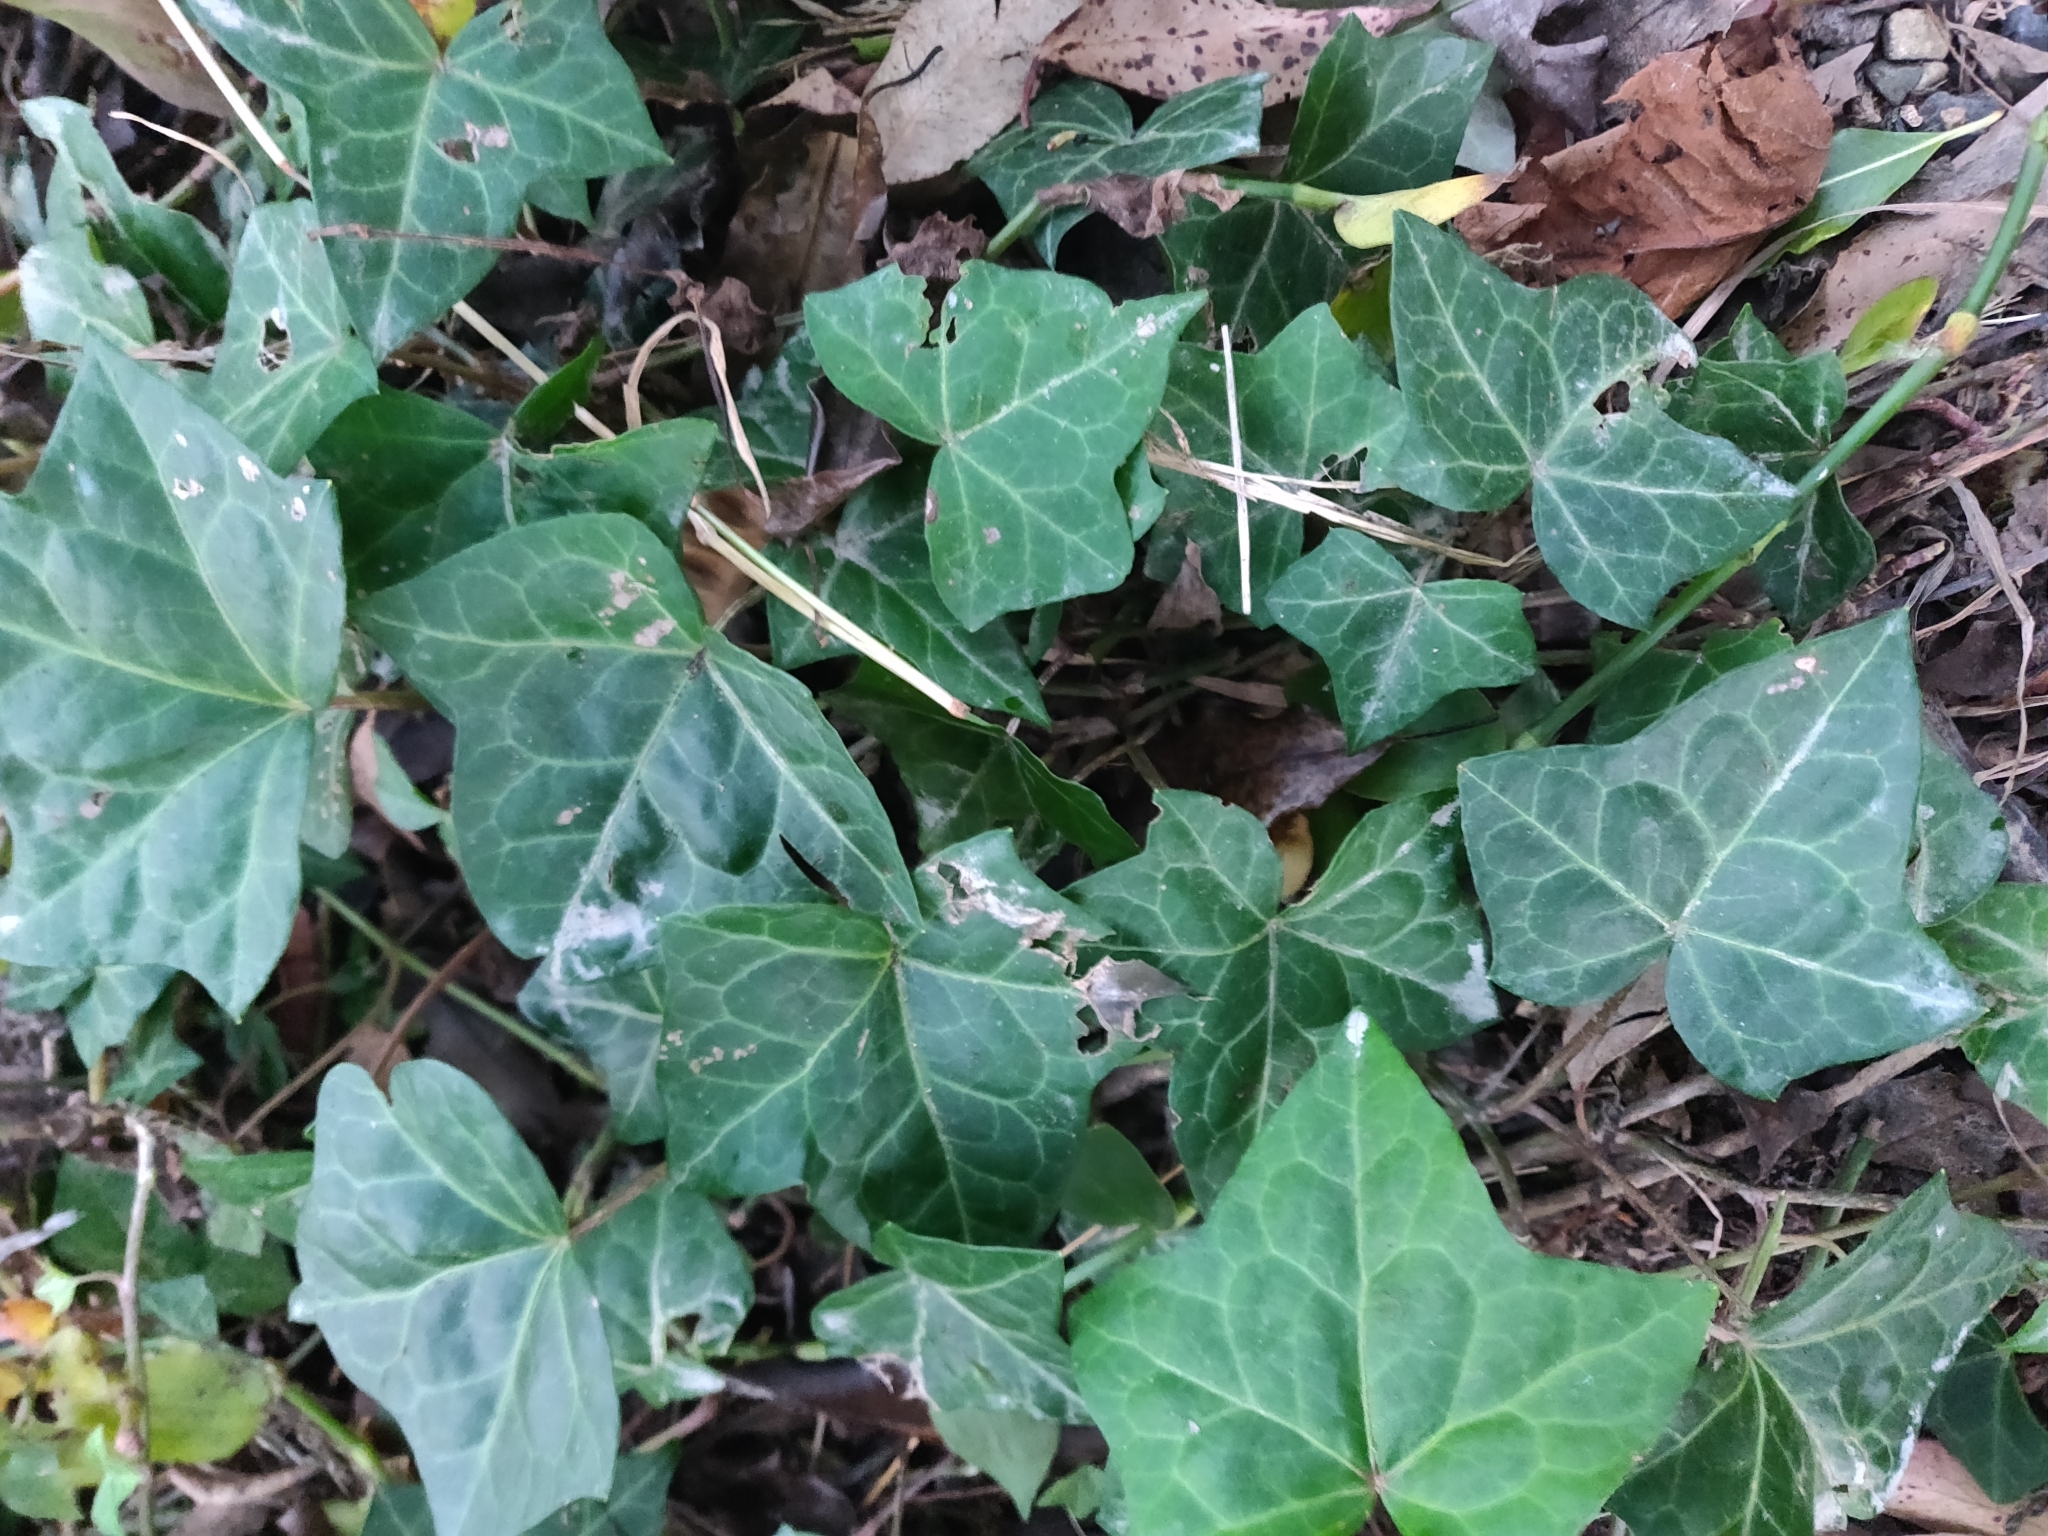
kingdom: Plantae
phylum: Tracheophyta
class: Magnoliopsida
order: Apiales
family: Araliaceae
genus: Hedera
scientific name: Hedera helix
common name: Ivy
